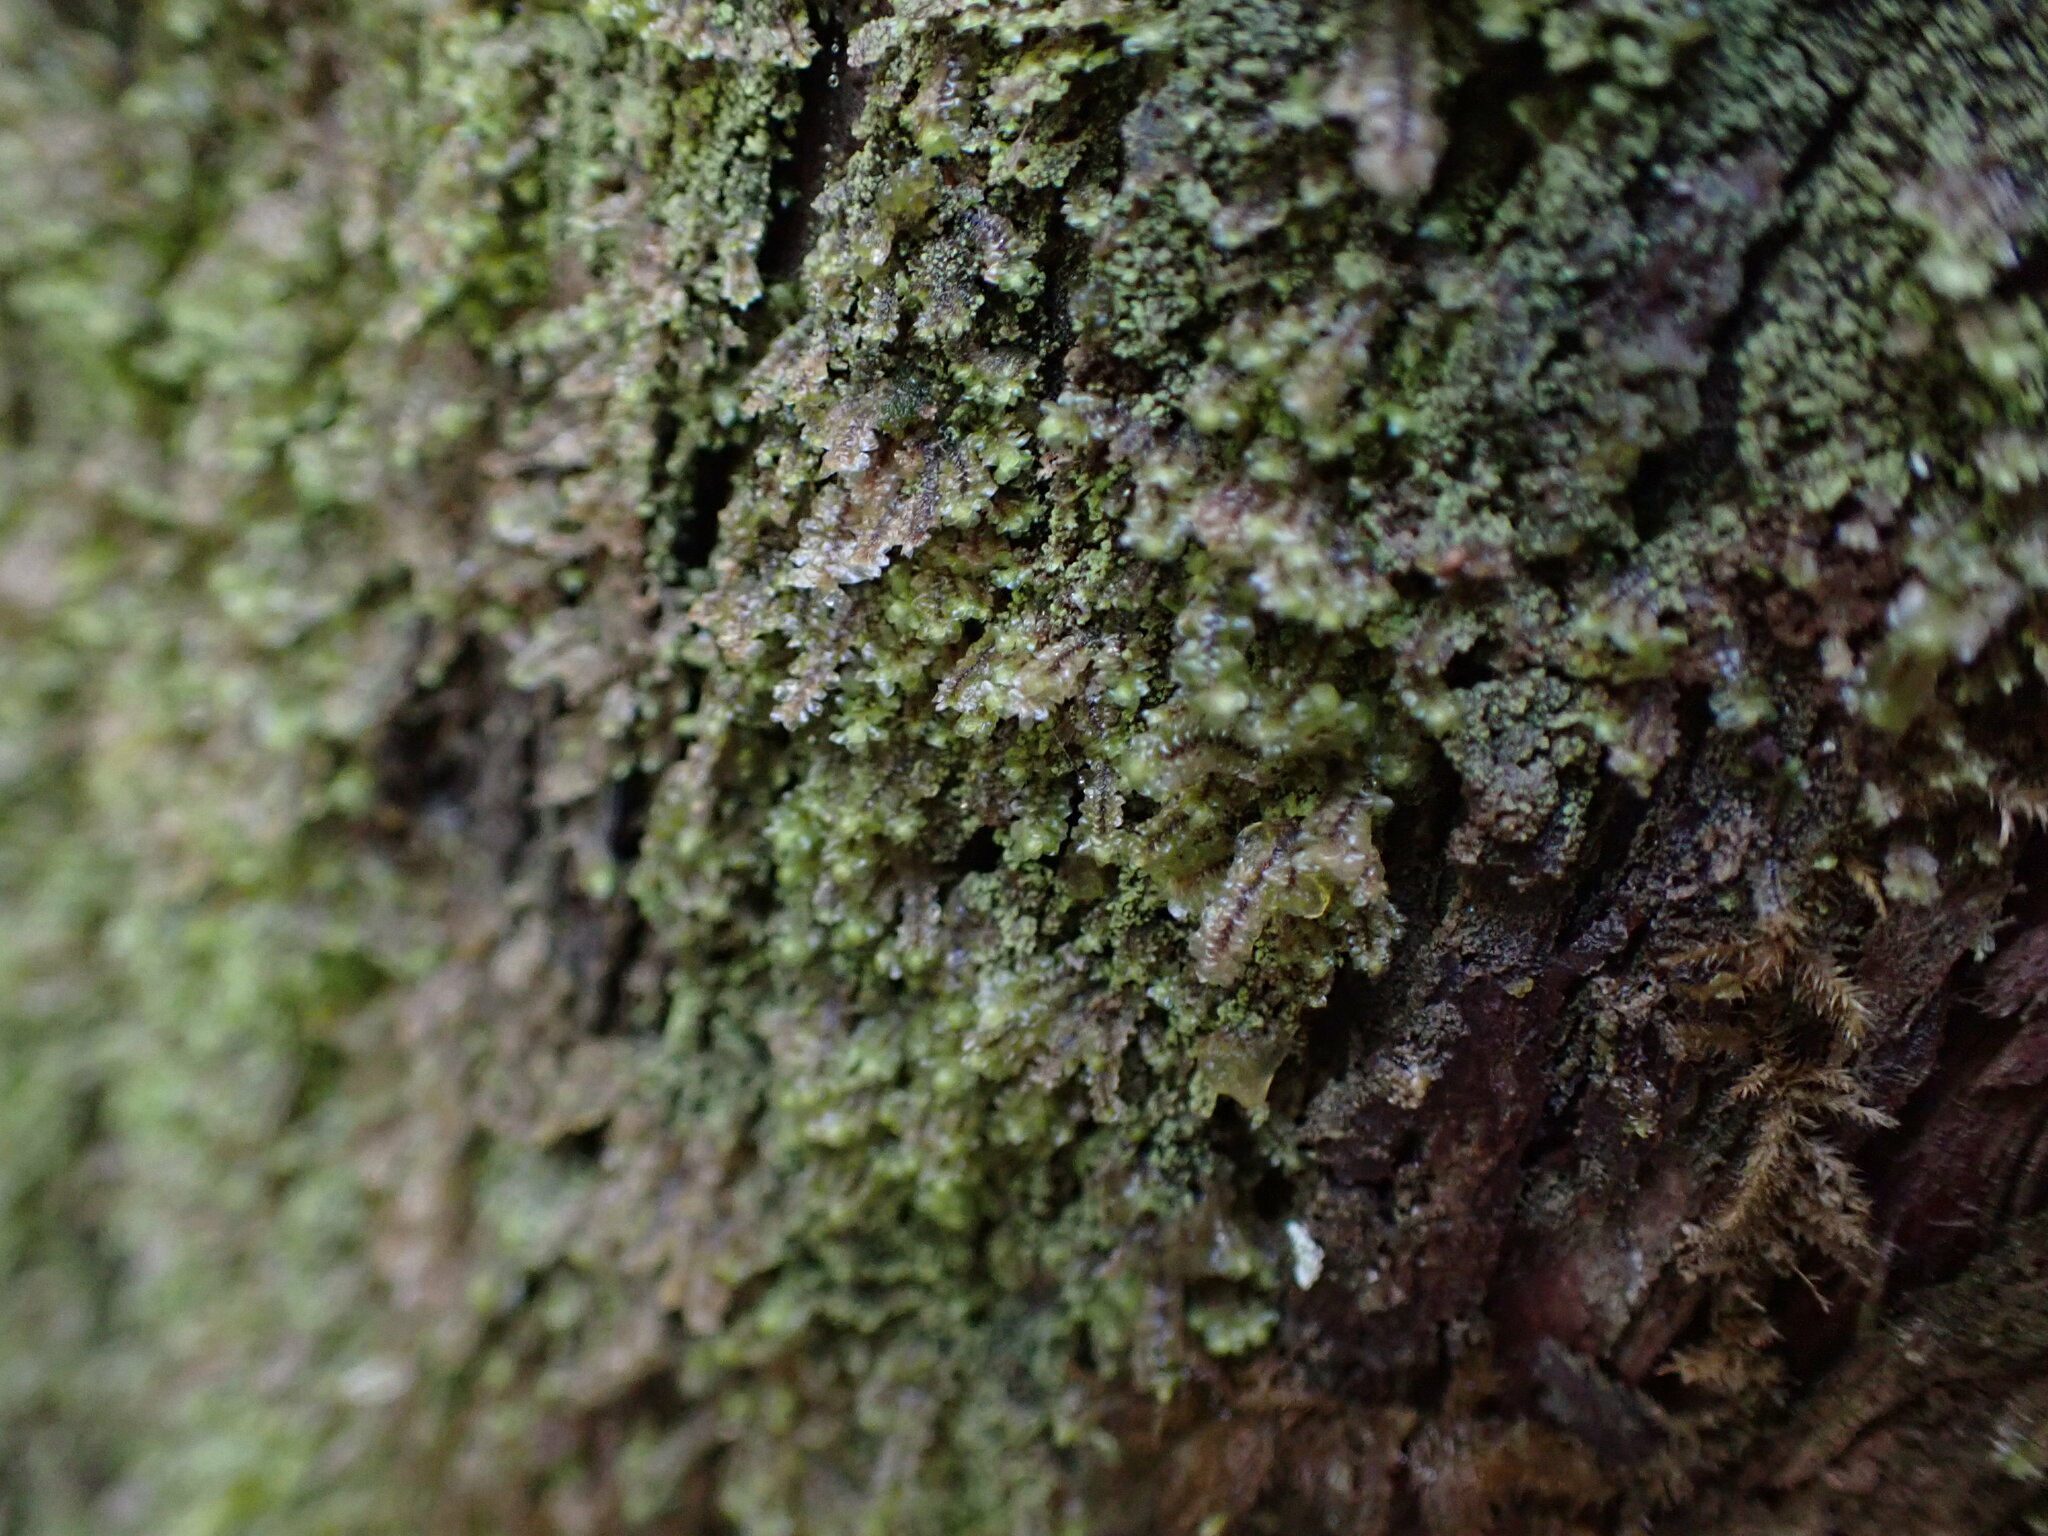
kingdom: Plantae
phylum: Marchantiophyta
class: Jungermanniopsida
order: Jungermanniales
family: Scapaniaceae
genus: Scapania
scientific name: Scapania bolanderi
